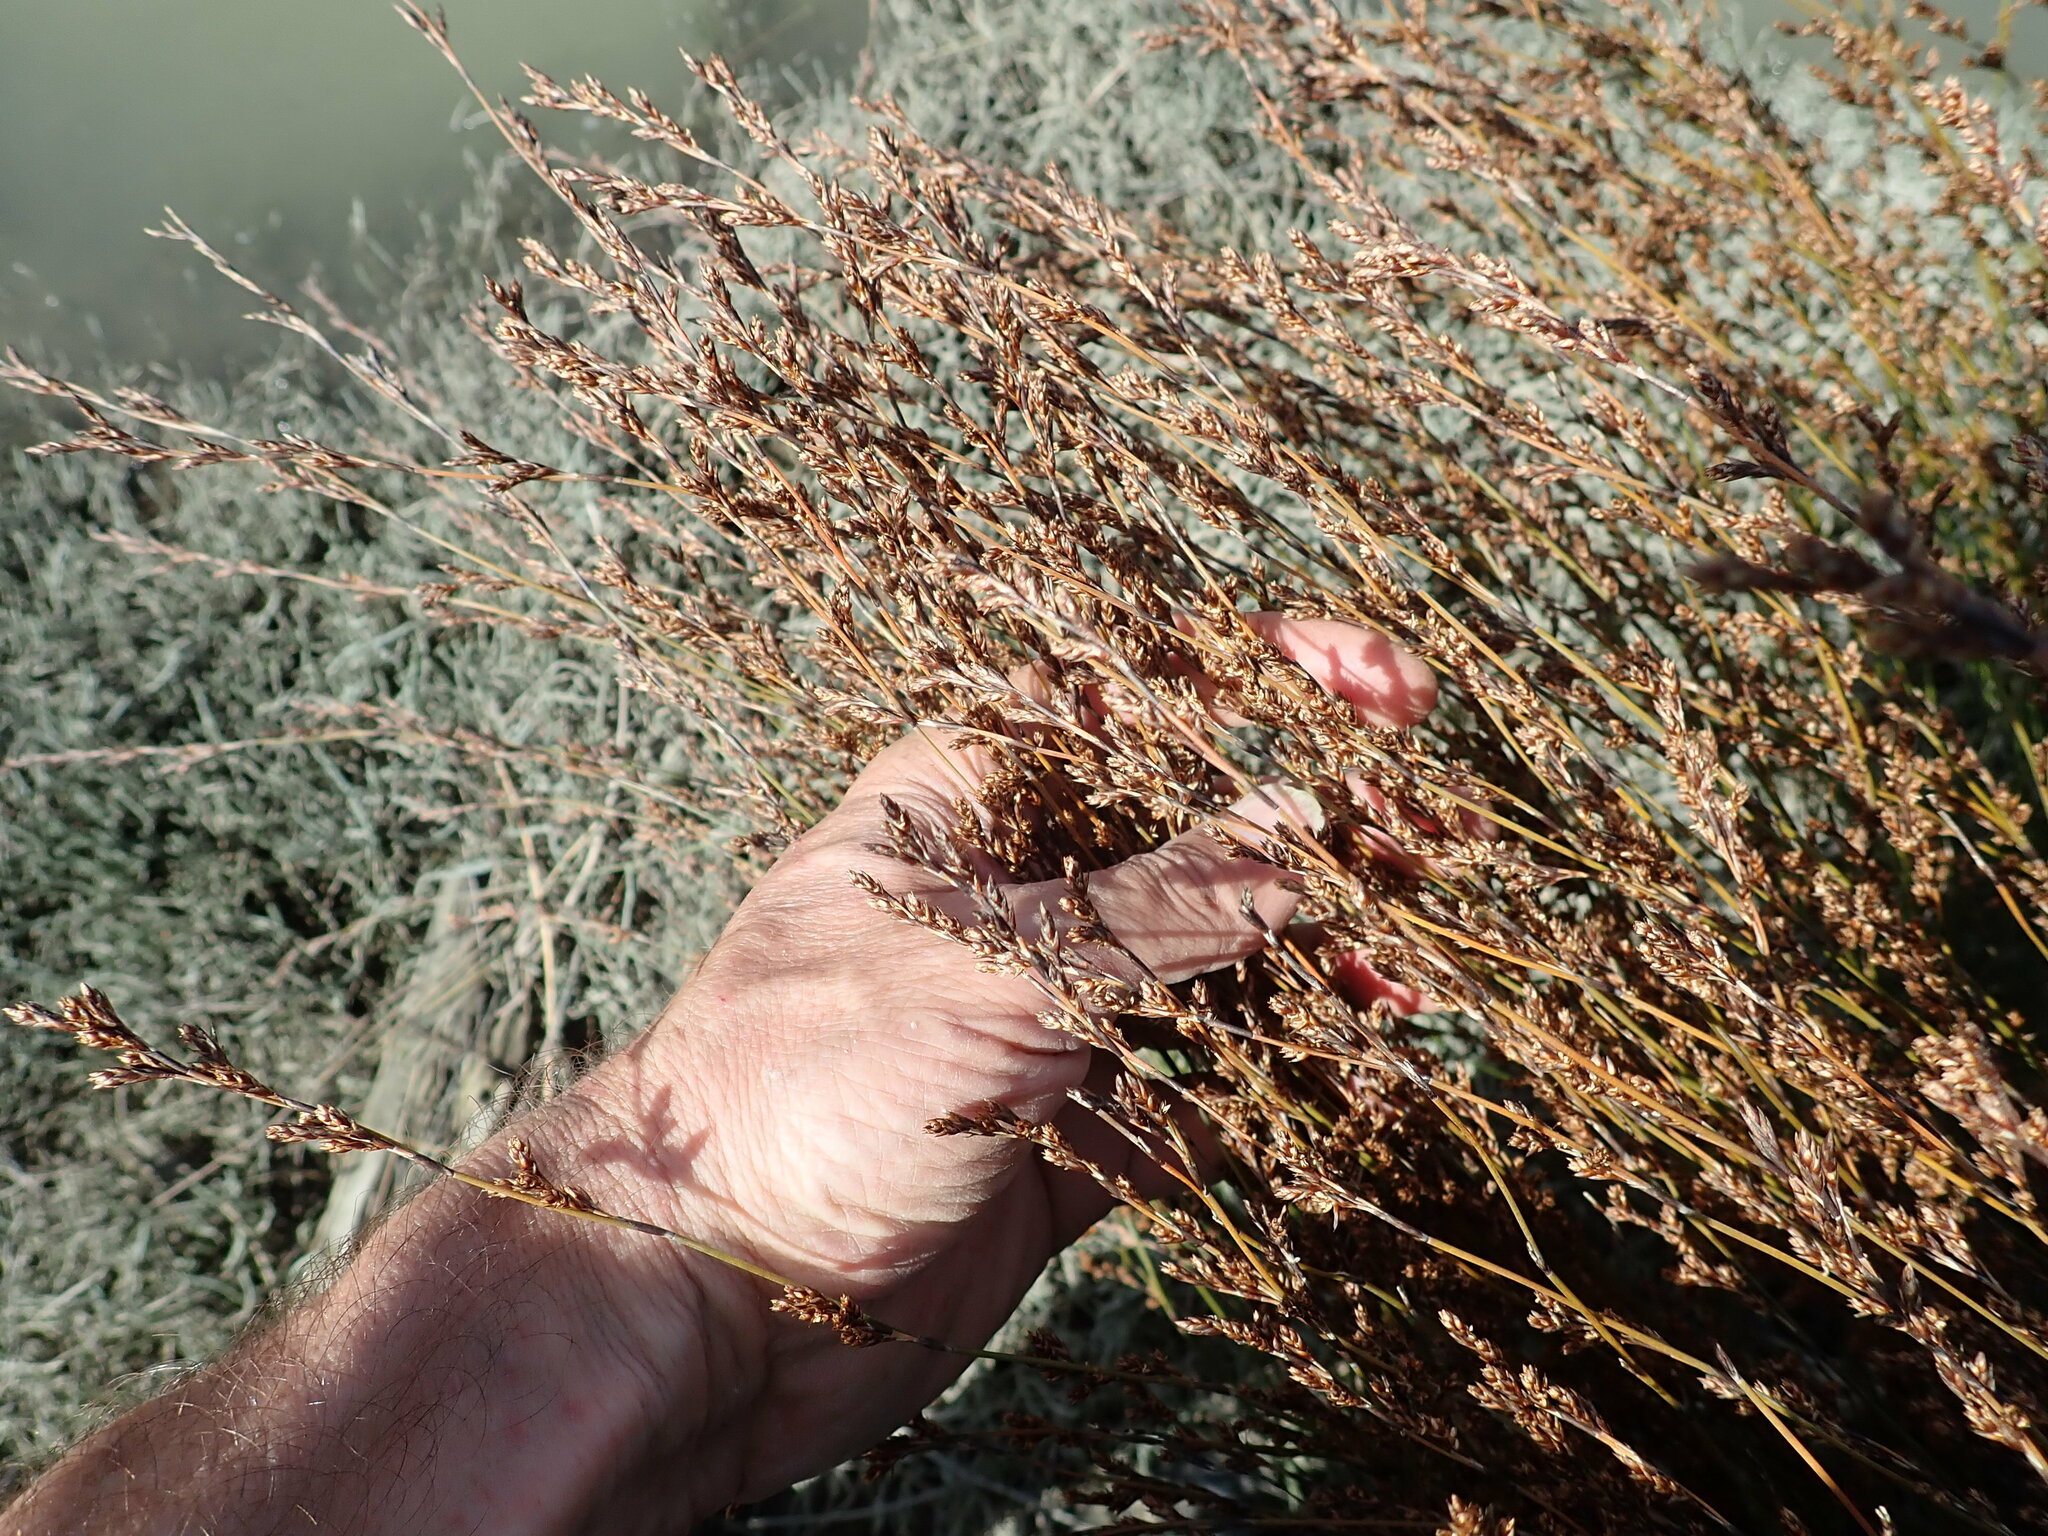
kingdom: Plantae
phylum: Tracheophyta
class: Liliopsida
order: Poales
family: Restionaceae
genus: Apodasmia
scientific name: Apodasmia similis
